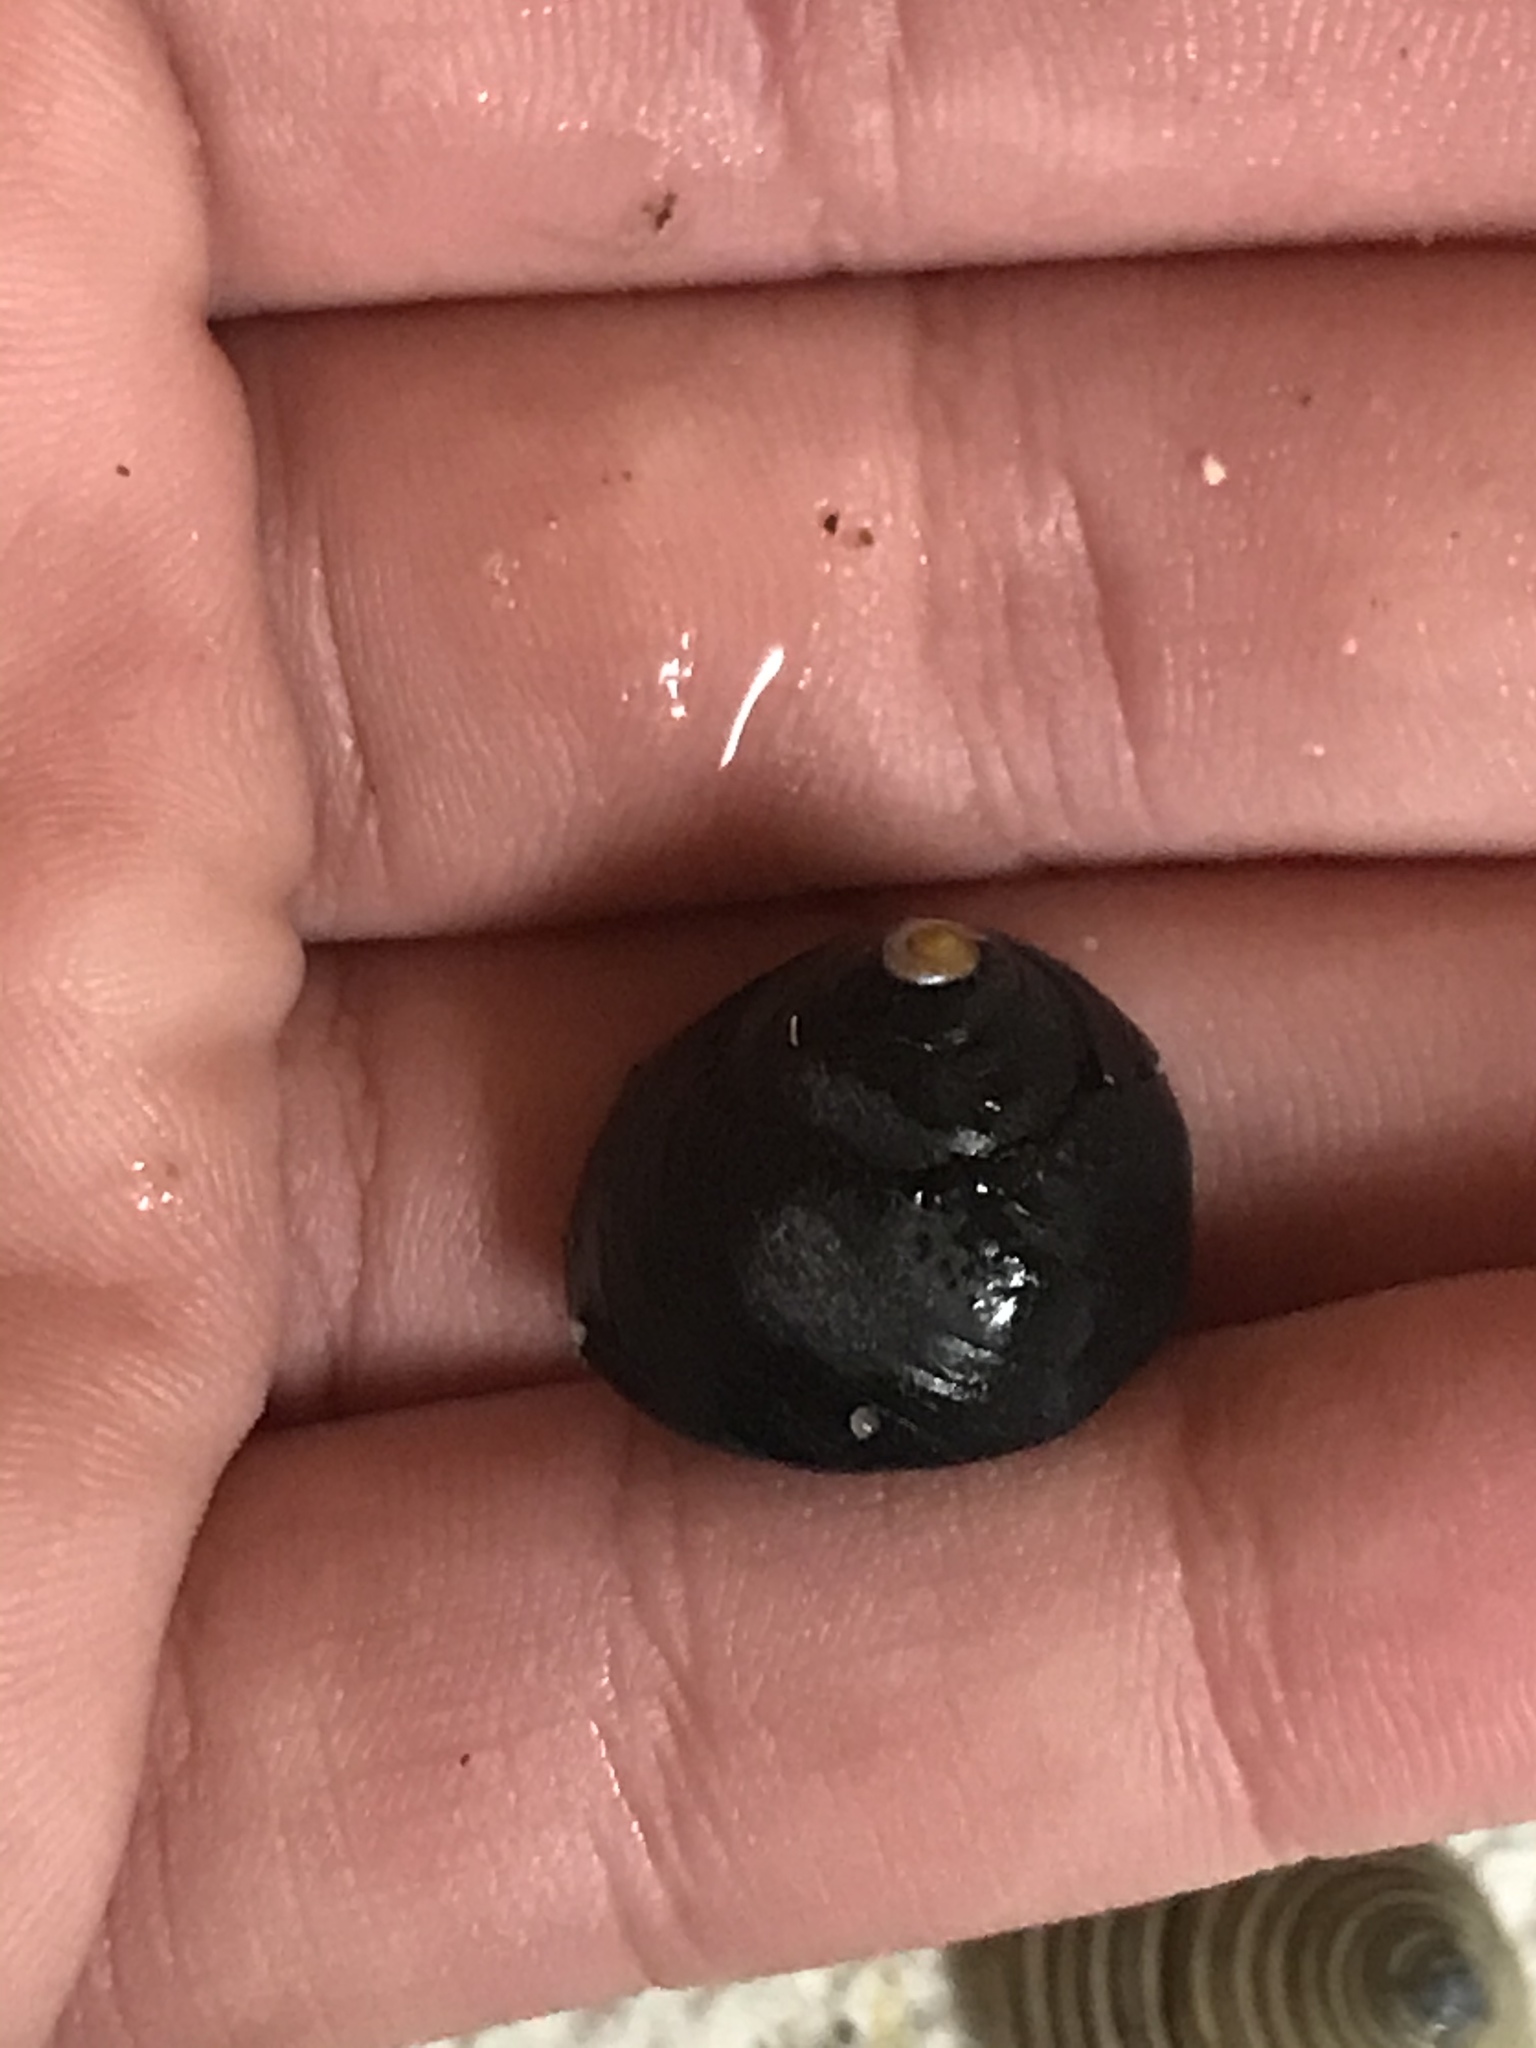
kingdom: Animalia
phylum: Mollusca
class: Gastropoda
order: Trochida
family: Tegulidae
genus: Tegula
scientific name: Tegula funebralis
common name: Black tegula
